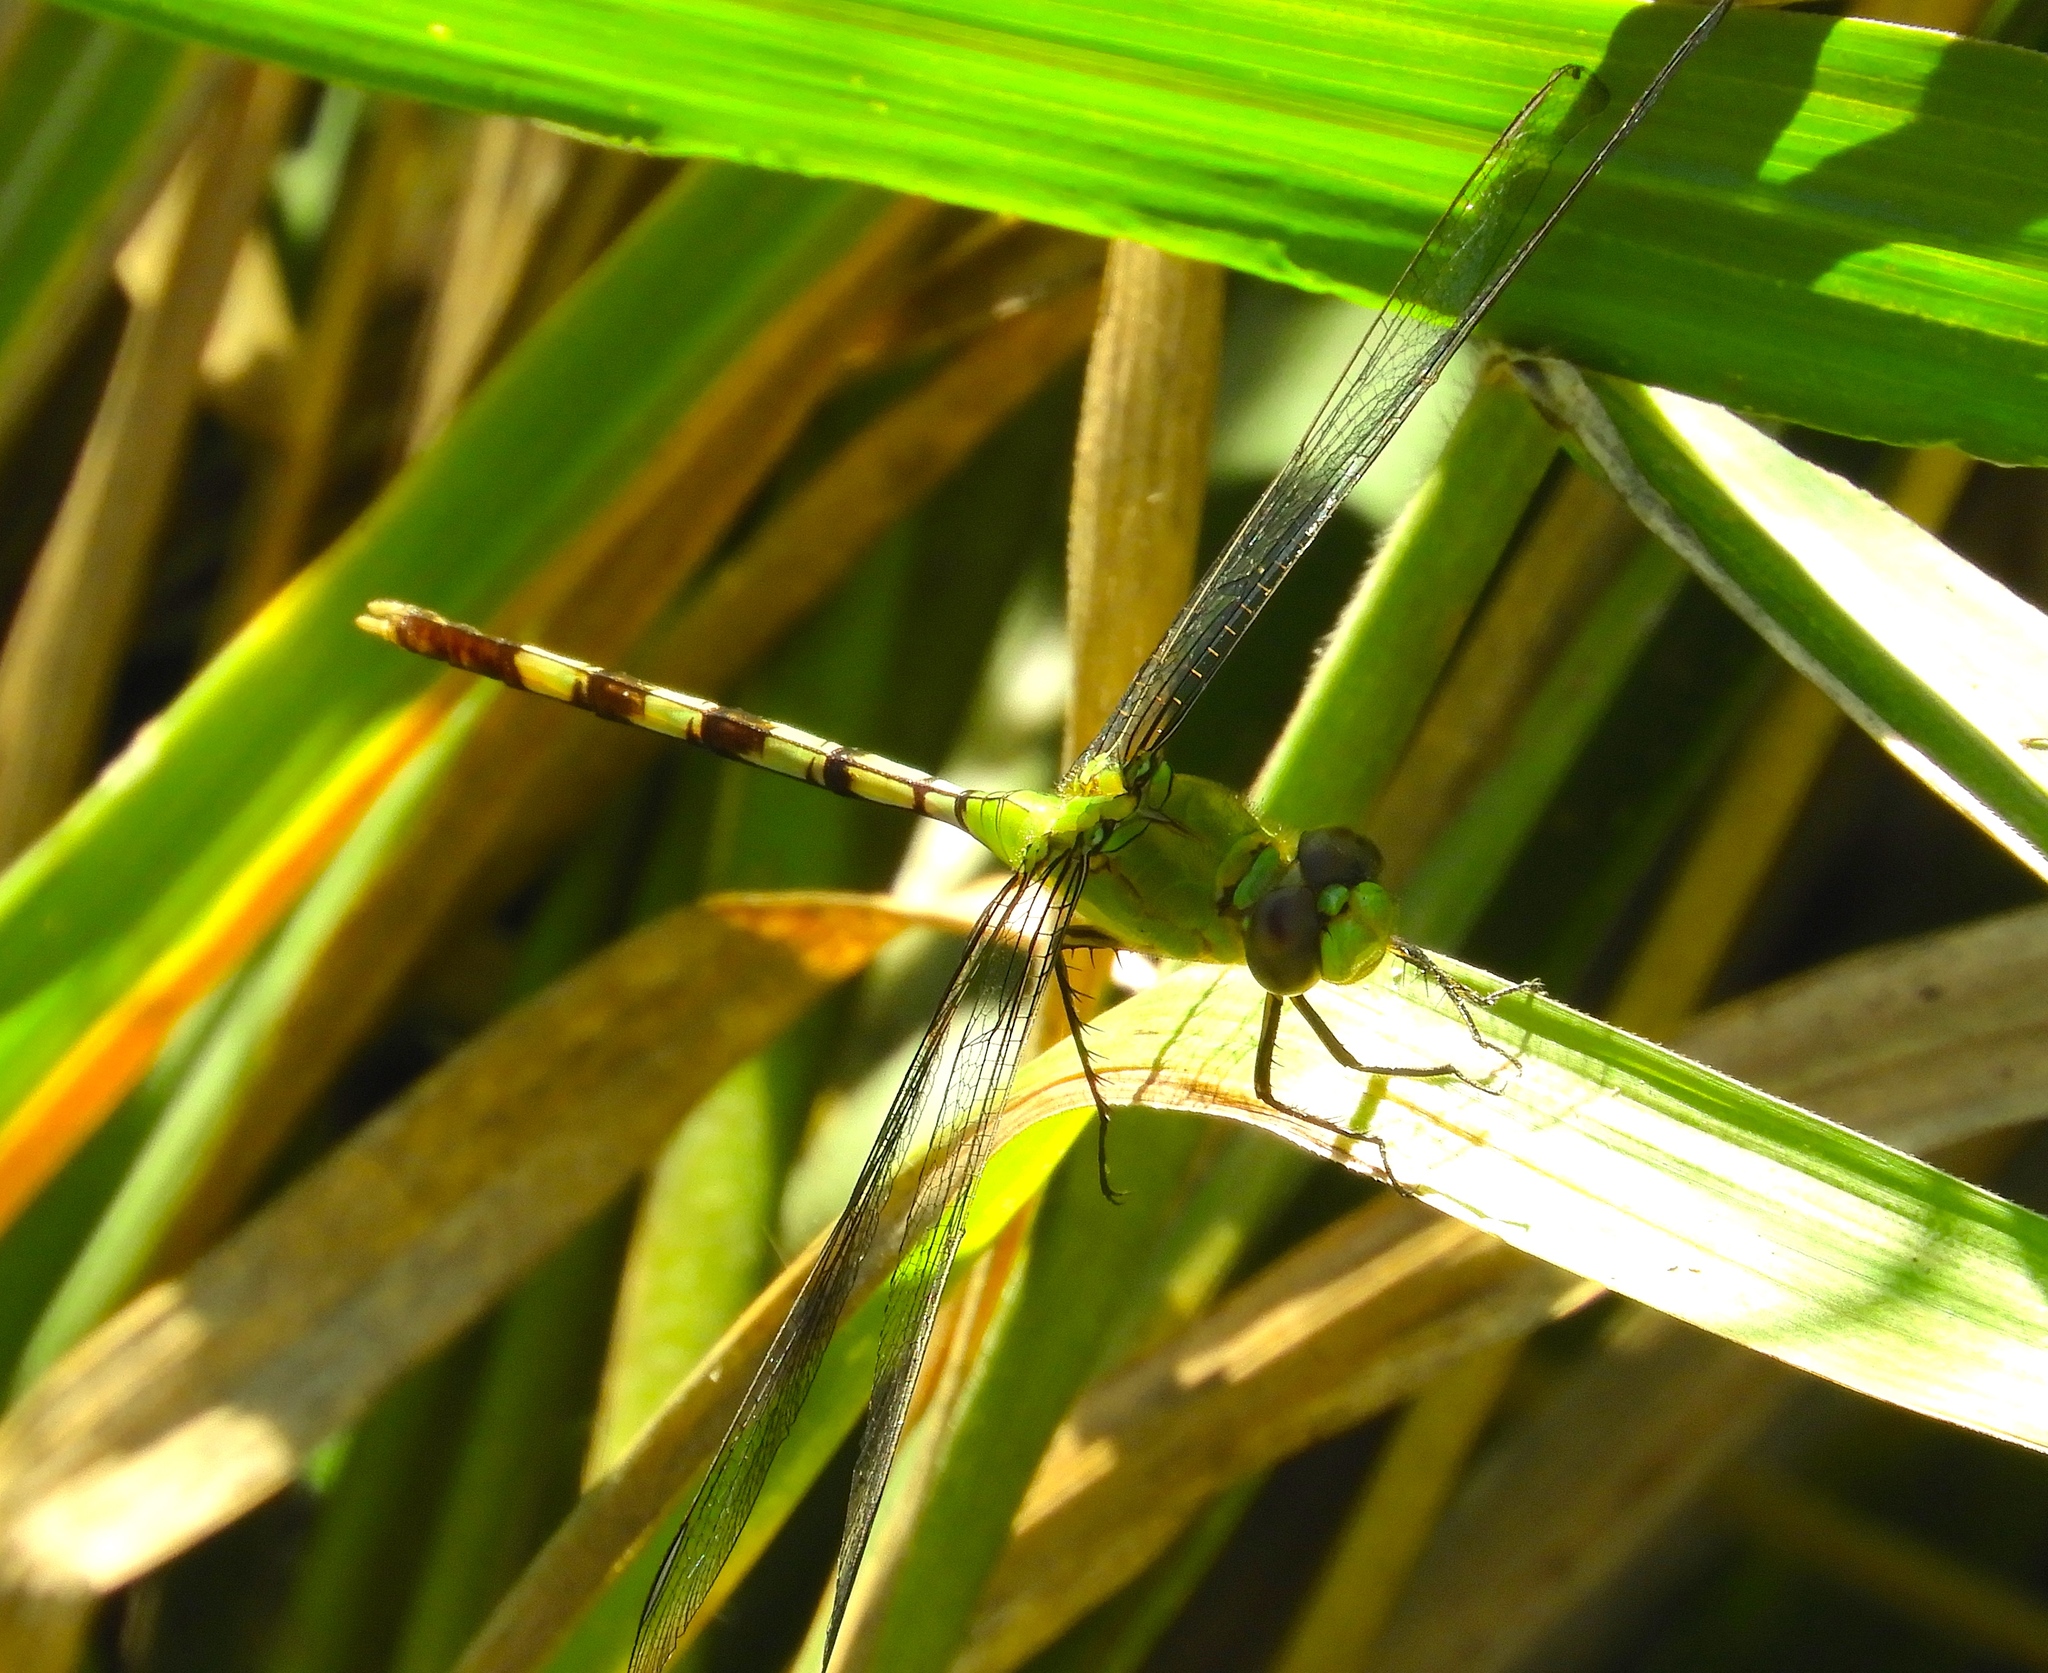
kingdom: Animalia
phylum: Arthropoda
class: Insecta
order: Odonata
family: Libellulidae
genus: Erythemis
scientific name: Erythemis vesiculosa
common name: Great pondhawk
